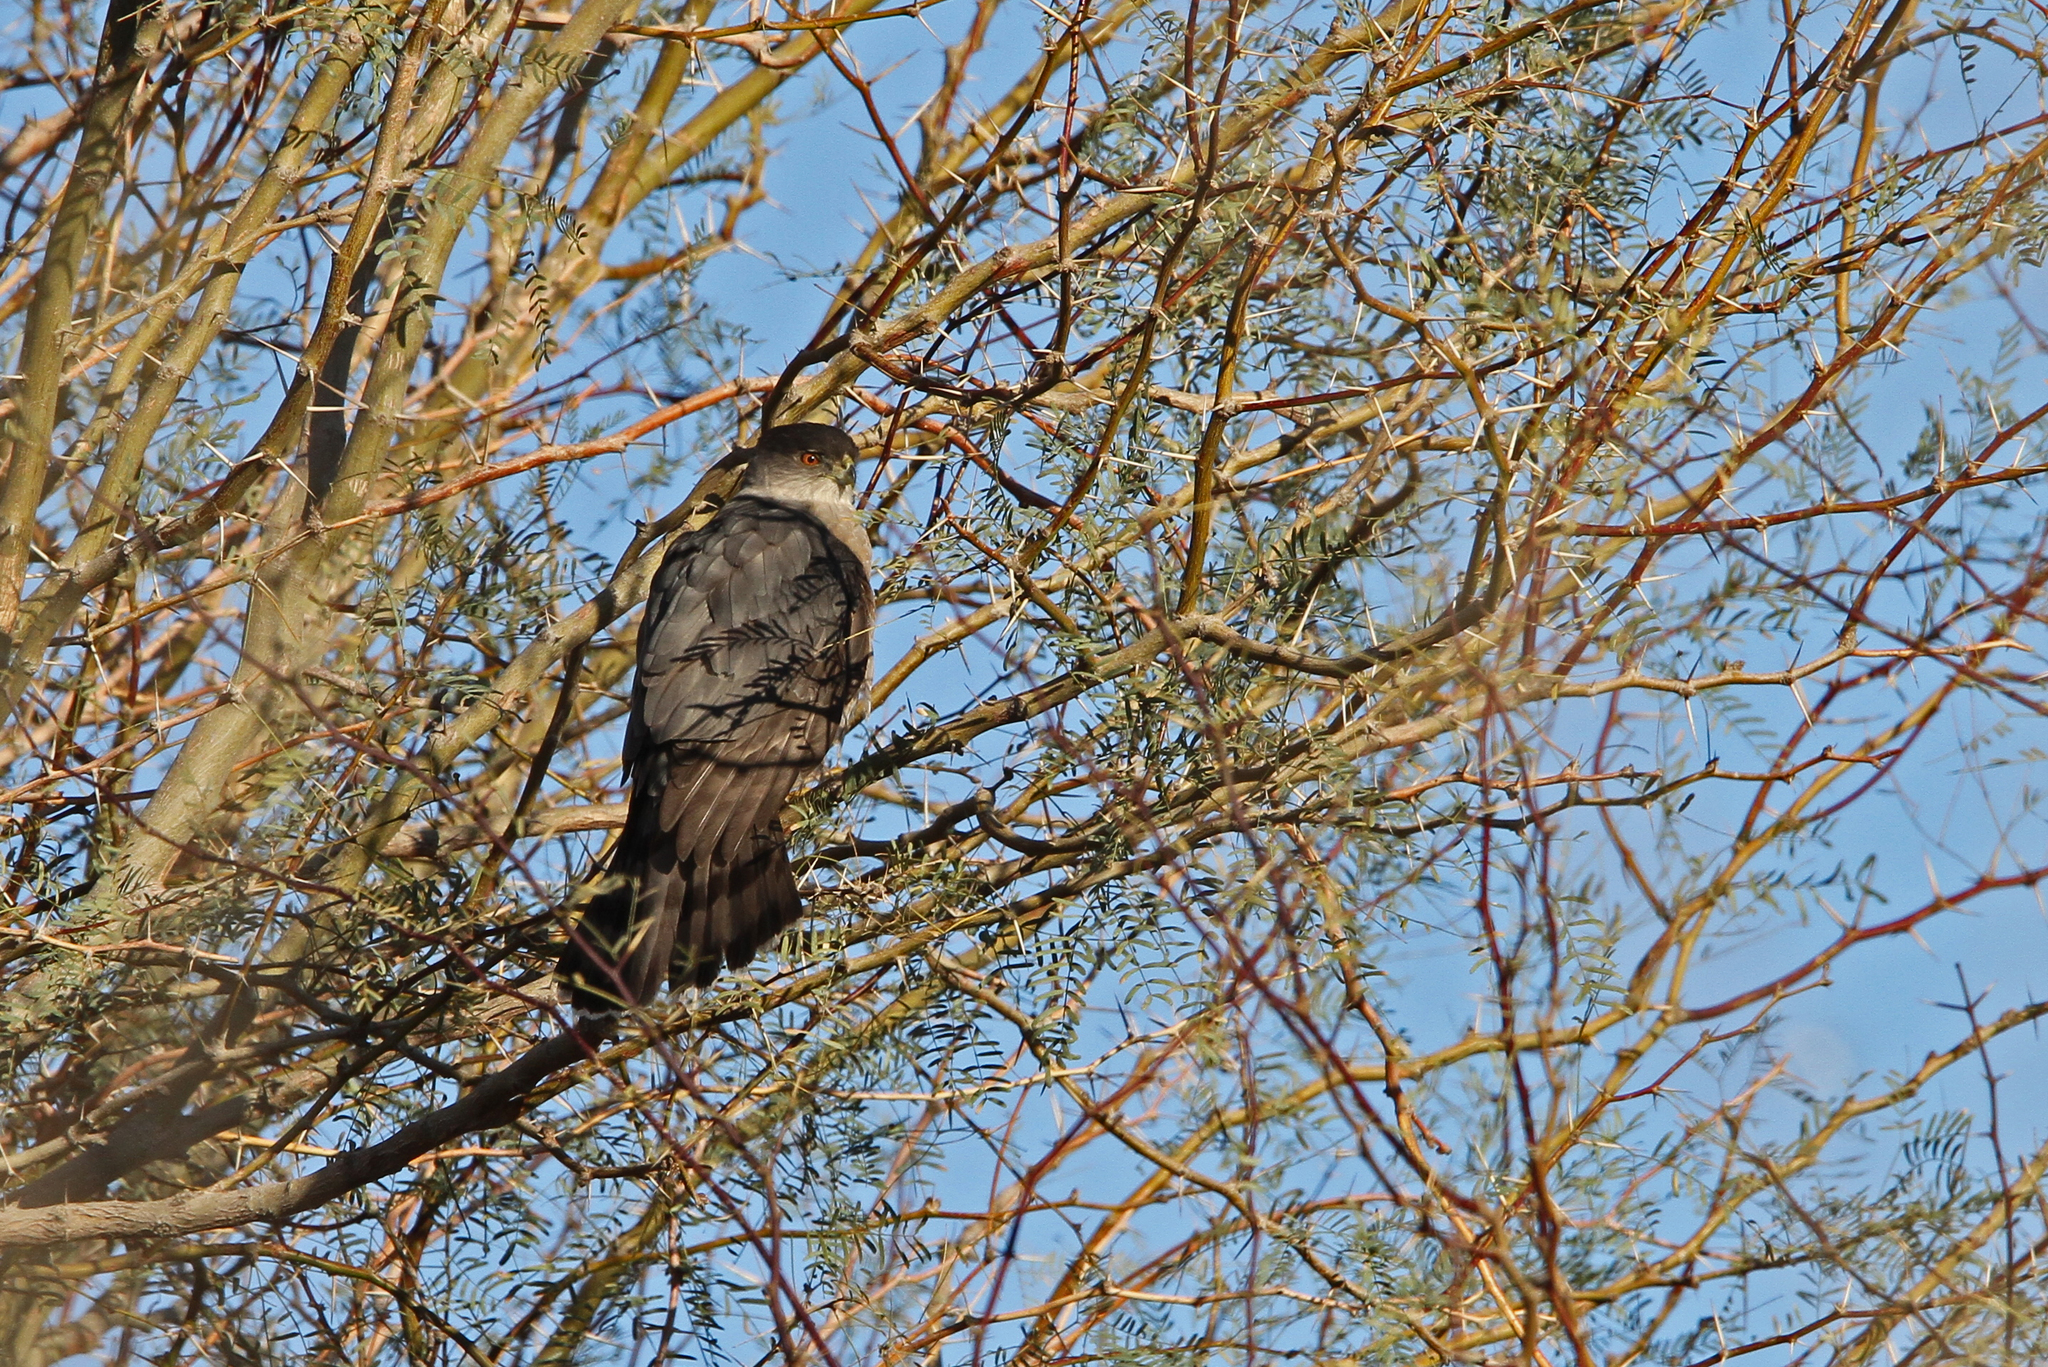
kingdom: Animalia
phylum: Chordata
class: Aves
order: Accipitriformes
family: Accipitridae
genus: Accipiter
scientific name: Accipiter cooperii
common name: Cooper's hawk
